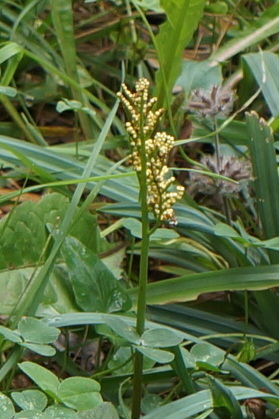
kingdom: Plantae
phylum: Tracheophyta
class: Polypodiopsida
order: Ophioglossales
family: Ophioglossaceae
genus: Sceptridium
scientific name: Sceptridium
